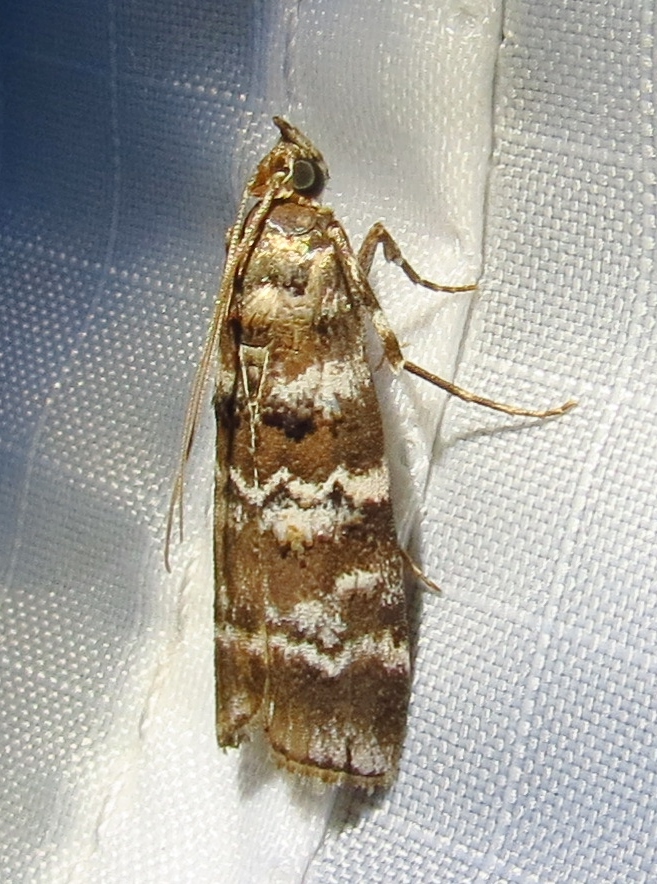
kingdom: Animalia
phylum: Arthropoda
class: Insecta
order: Lepidoptera
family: Pyralidae
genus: Dioryctria
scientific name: Dioryctria amatella
